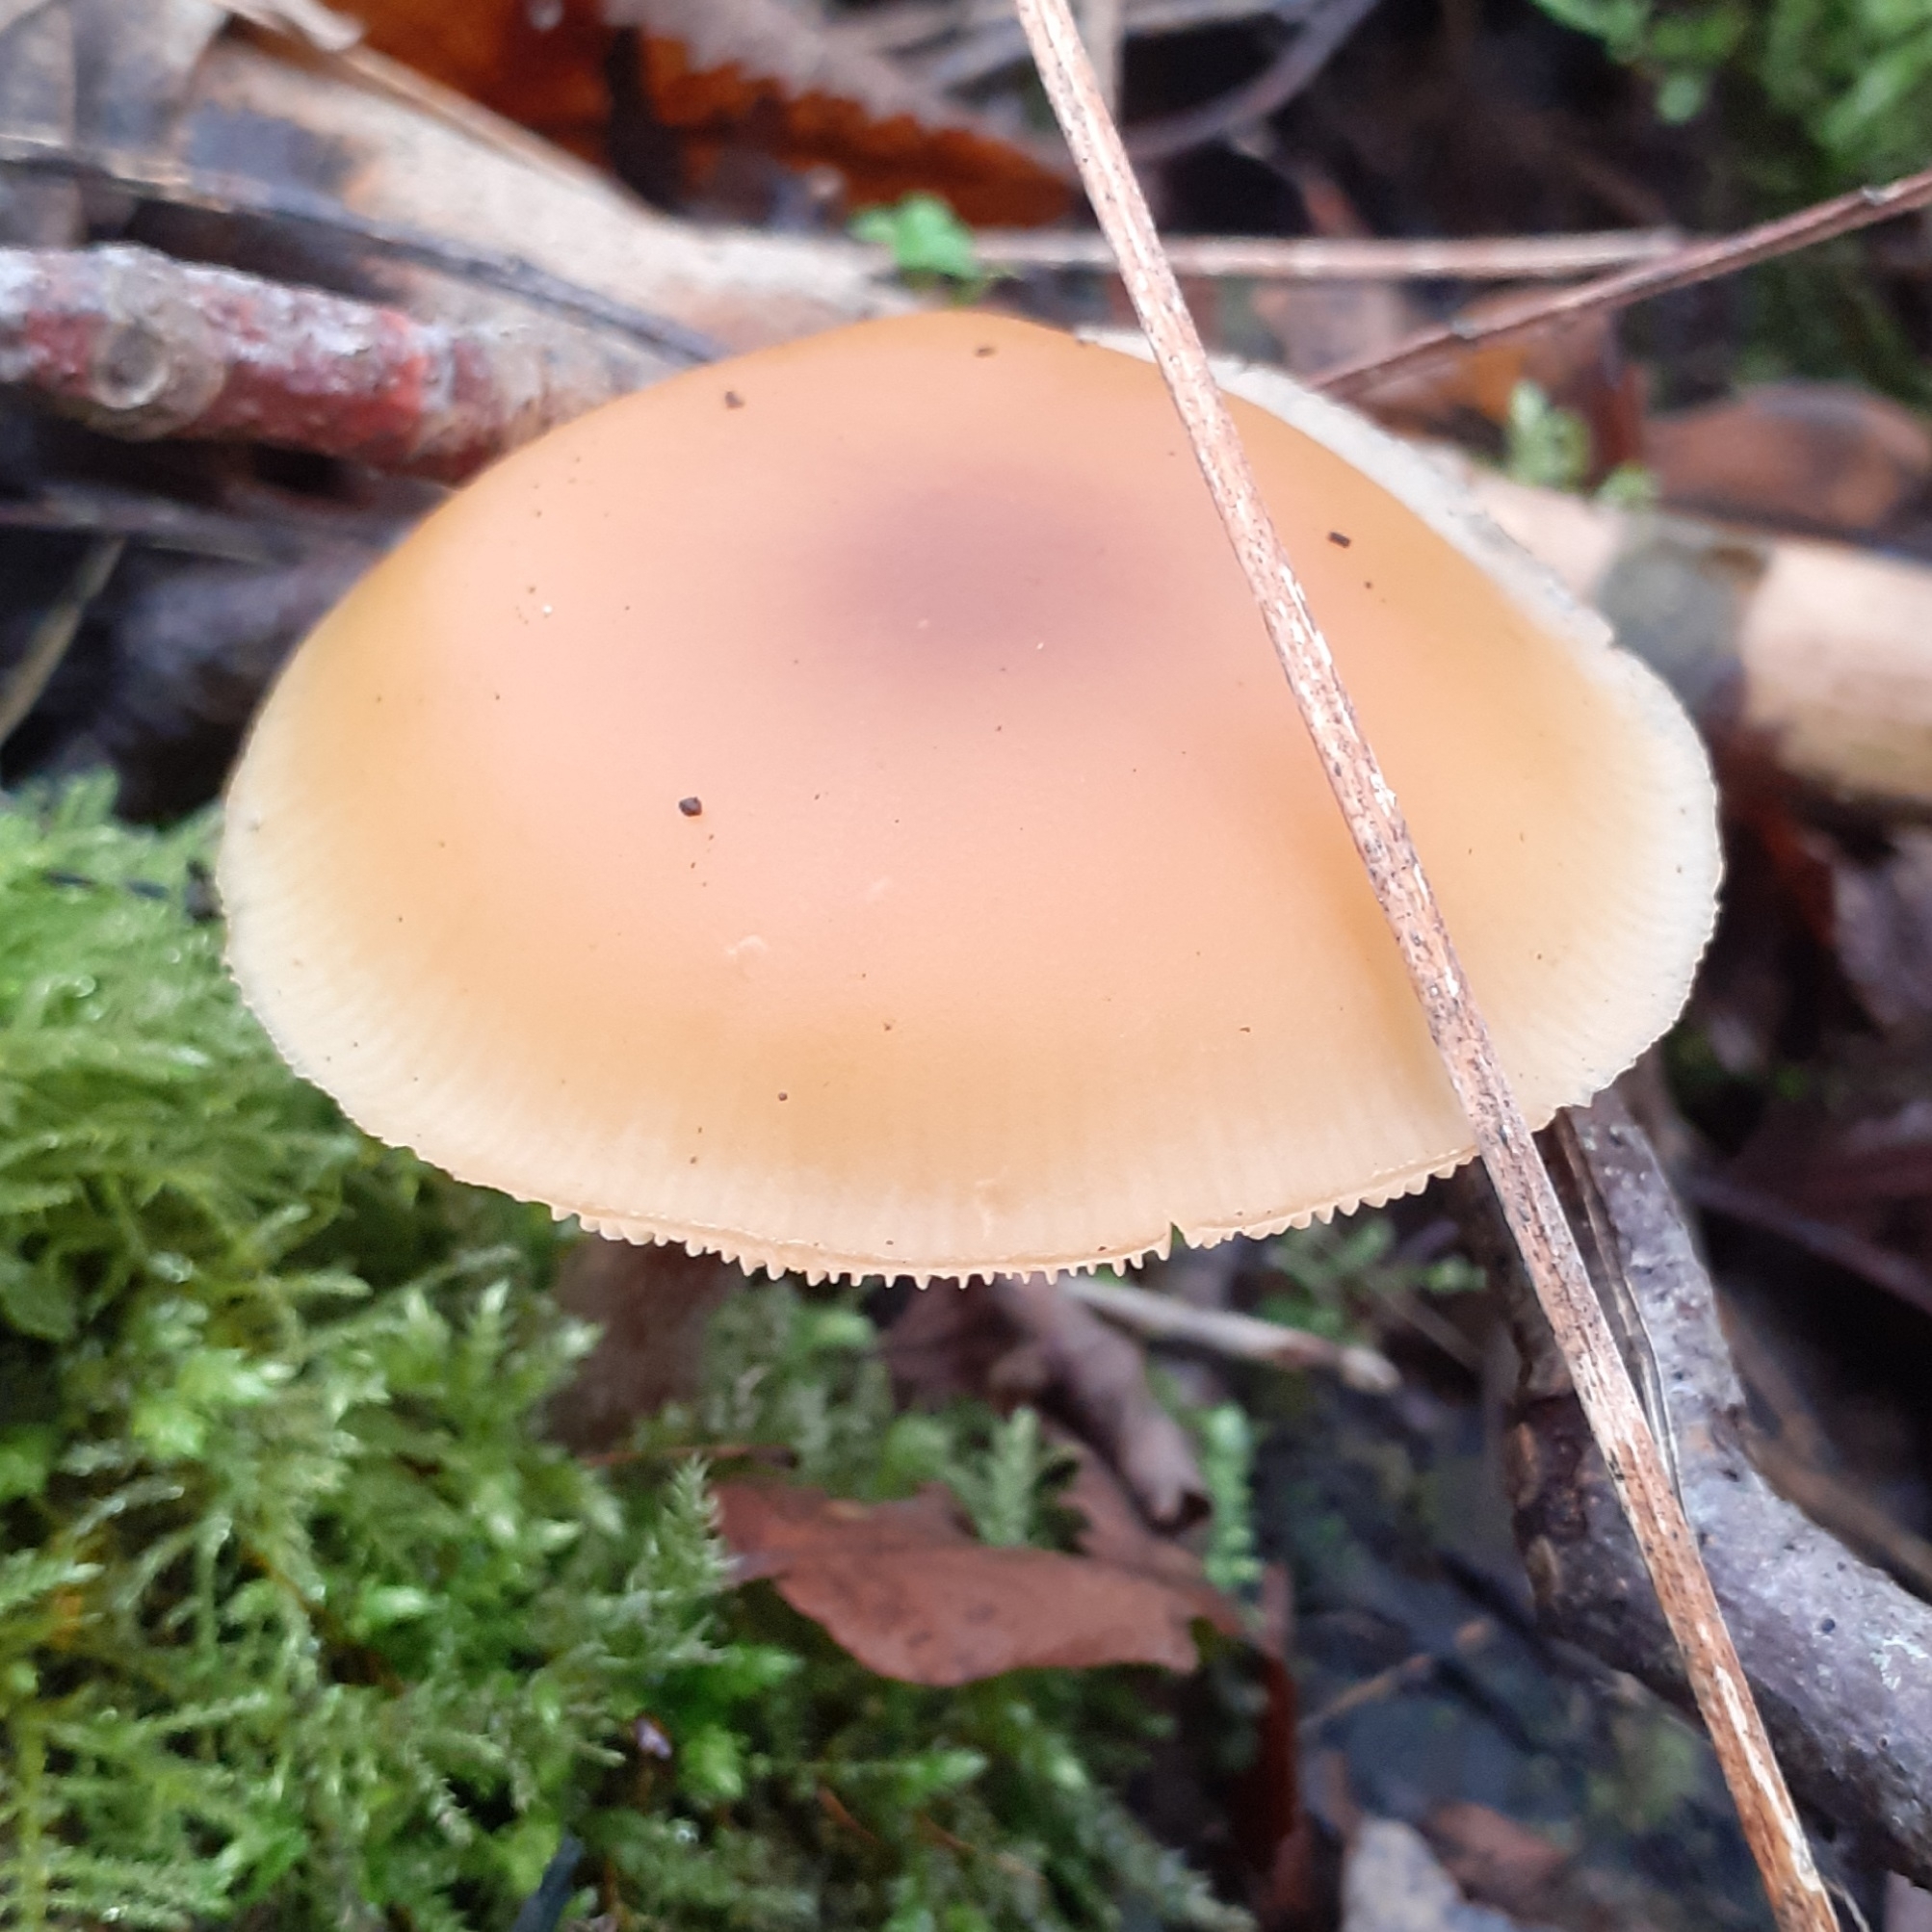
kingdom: Fungi
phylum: Basidiomycota
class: Agaricomycetes
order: Agaricales
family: Hymenogastraceae
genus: Galerina
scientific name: Galerina marginata
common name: Funeral bell
